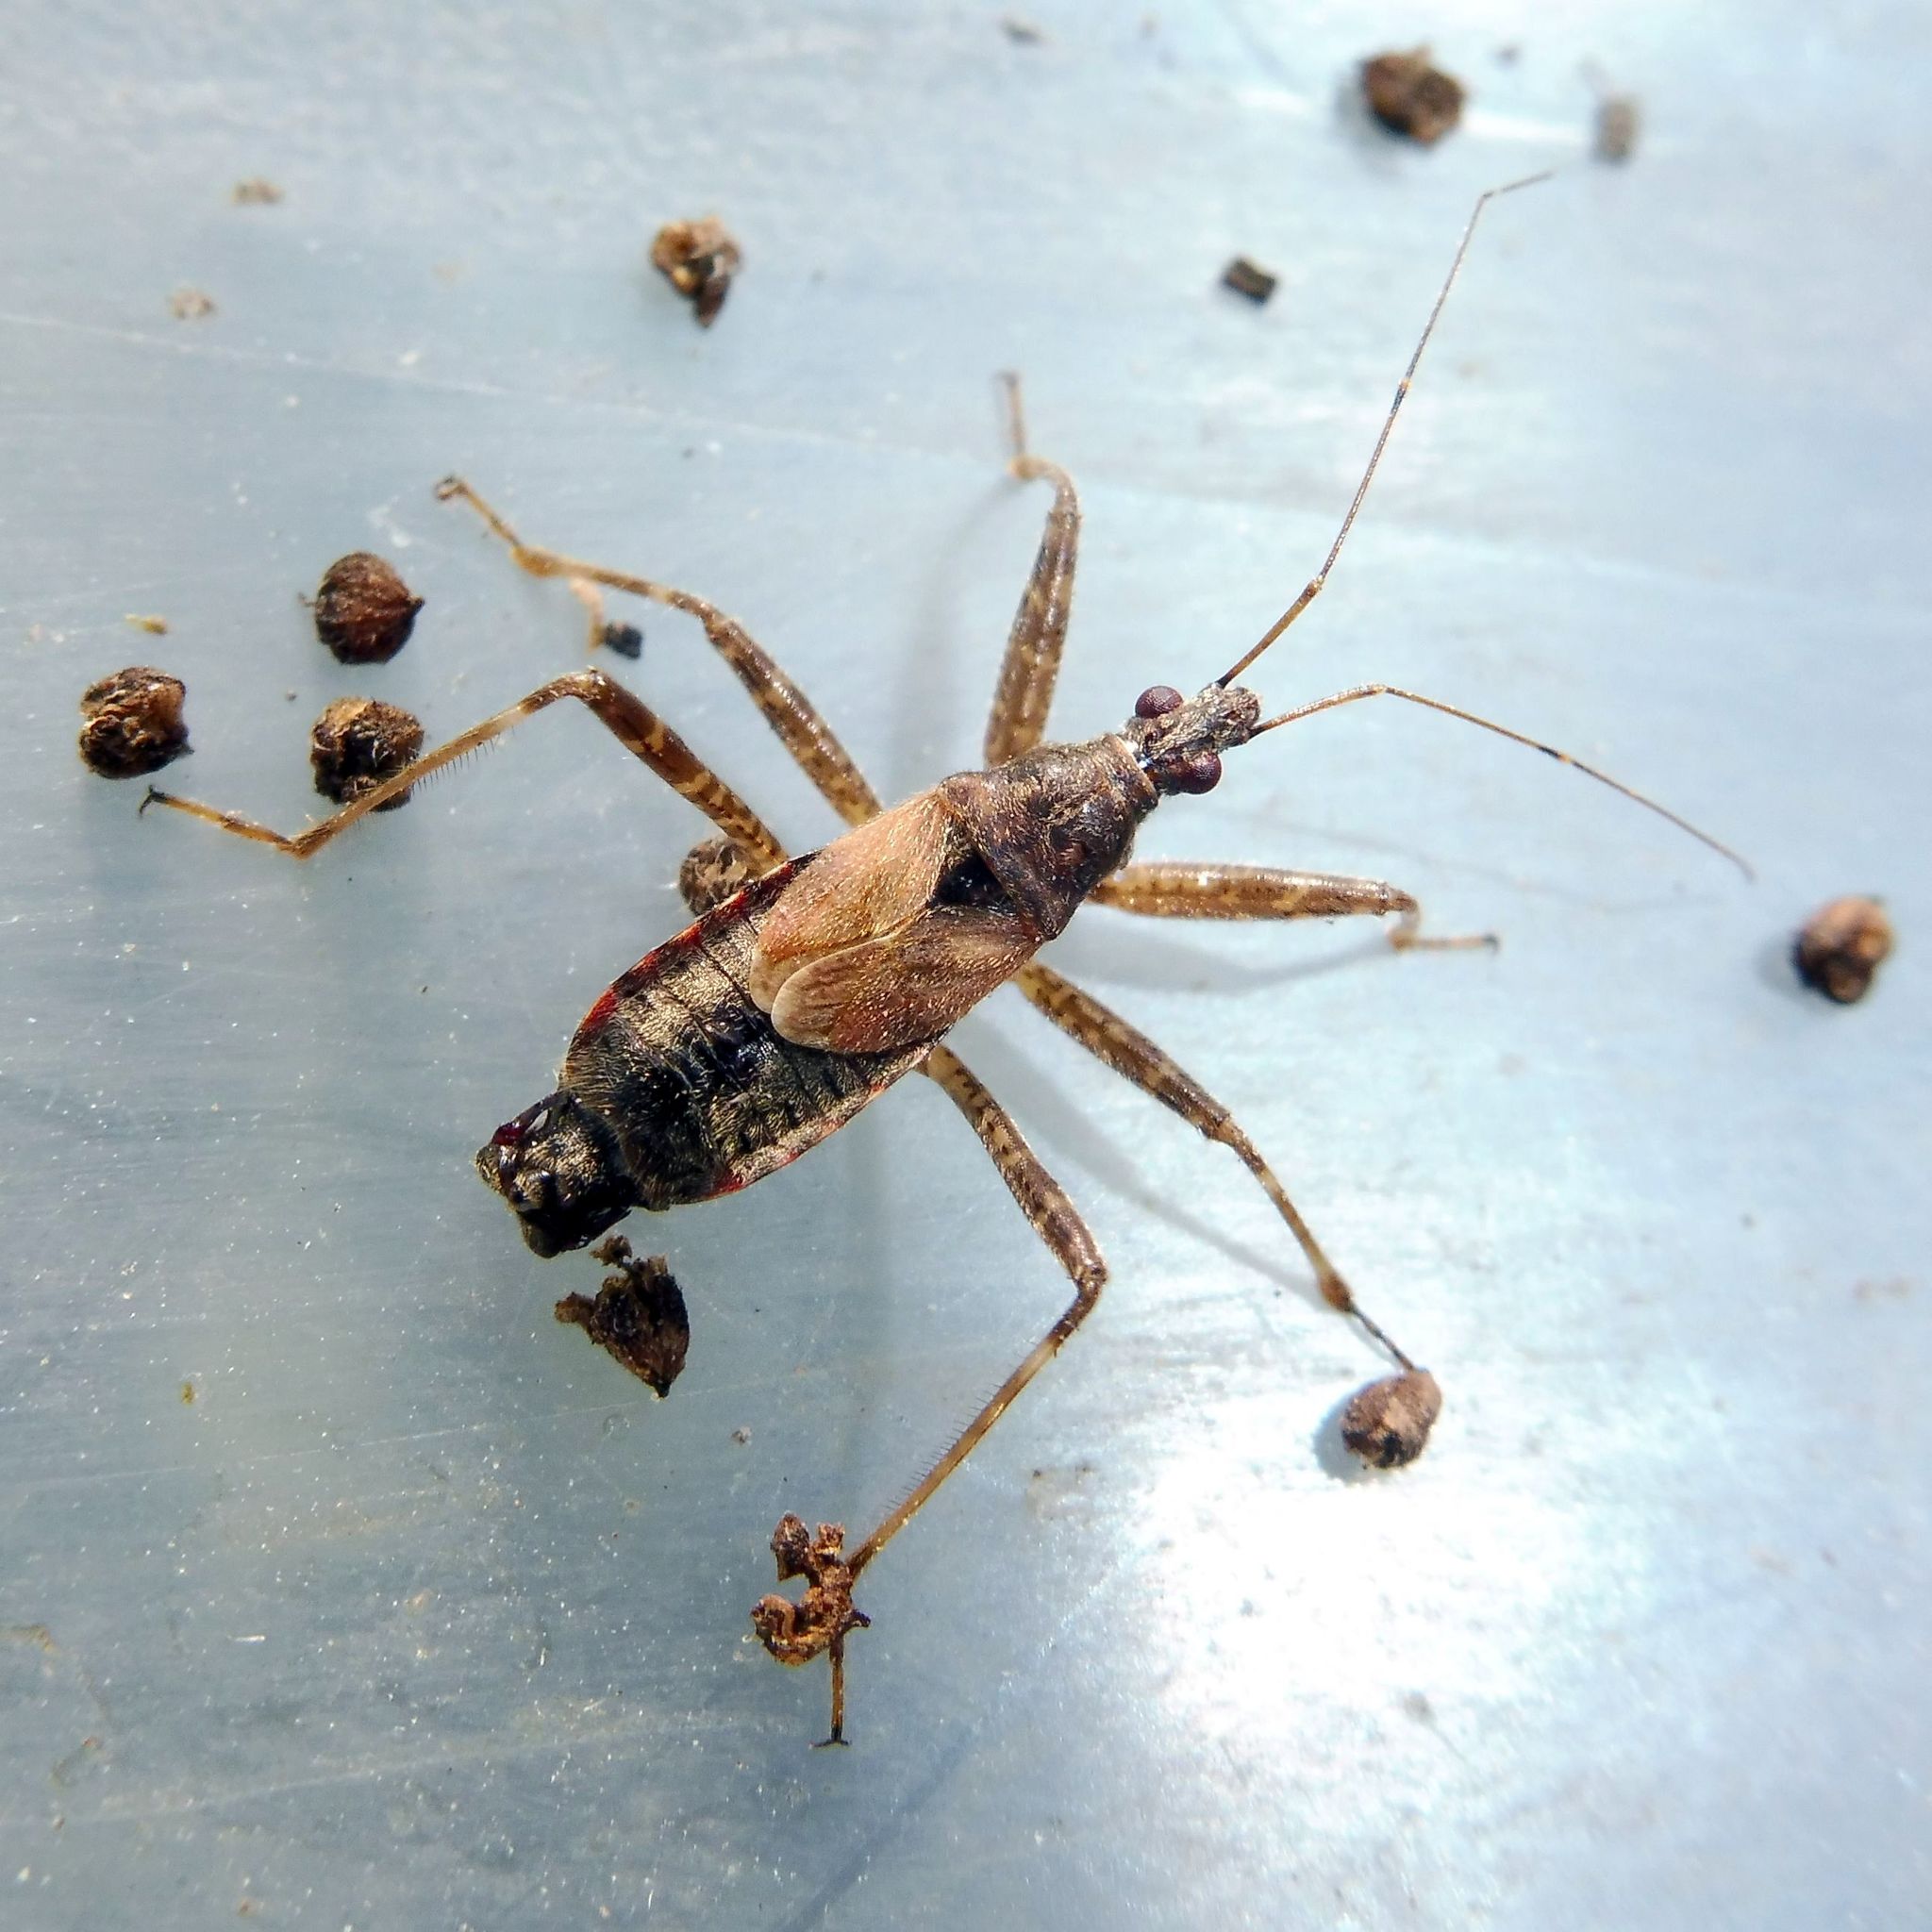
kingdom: Animalia
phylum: Arthropoda
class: Insecta
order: Hemiptera
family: Nabidae
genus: Himacerus
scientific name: Himacerus apterus
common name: Tree damsel bug
